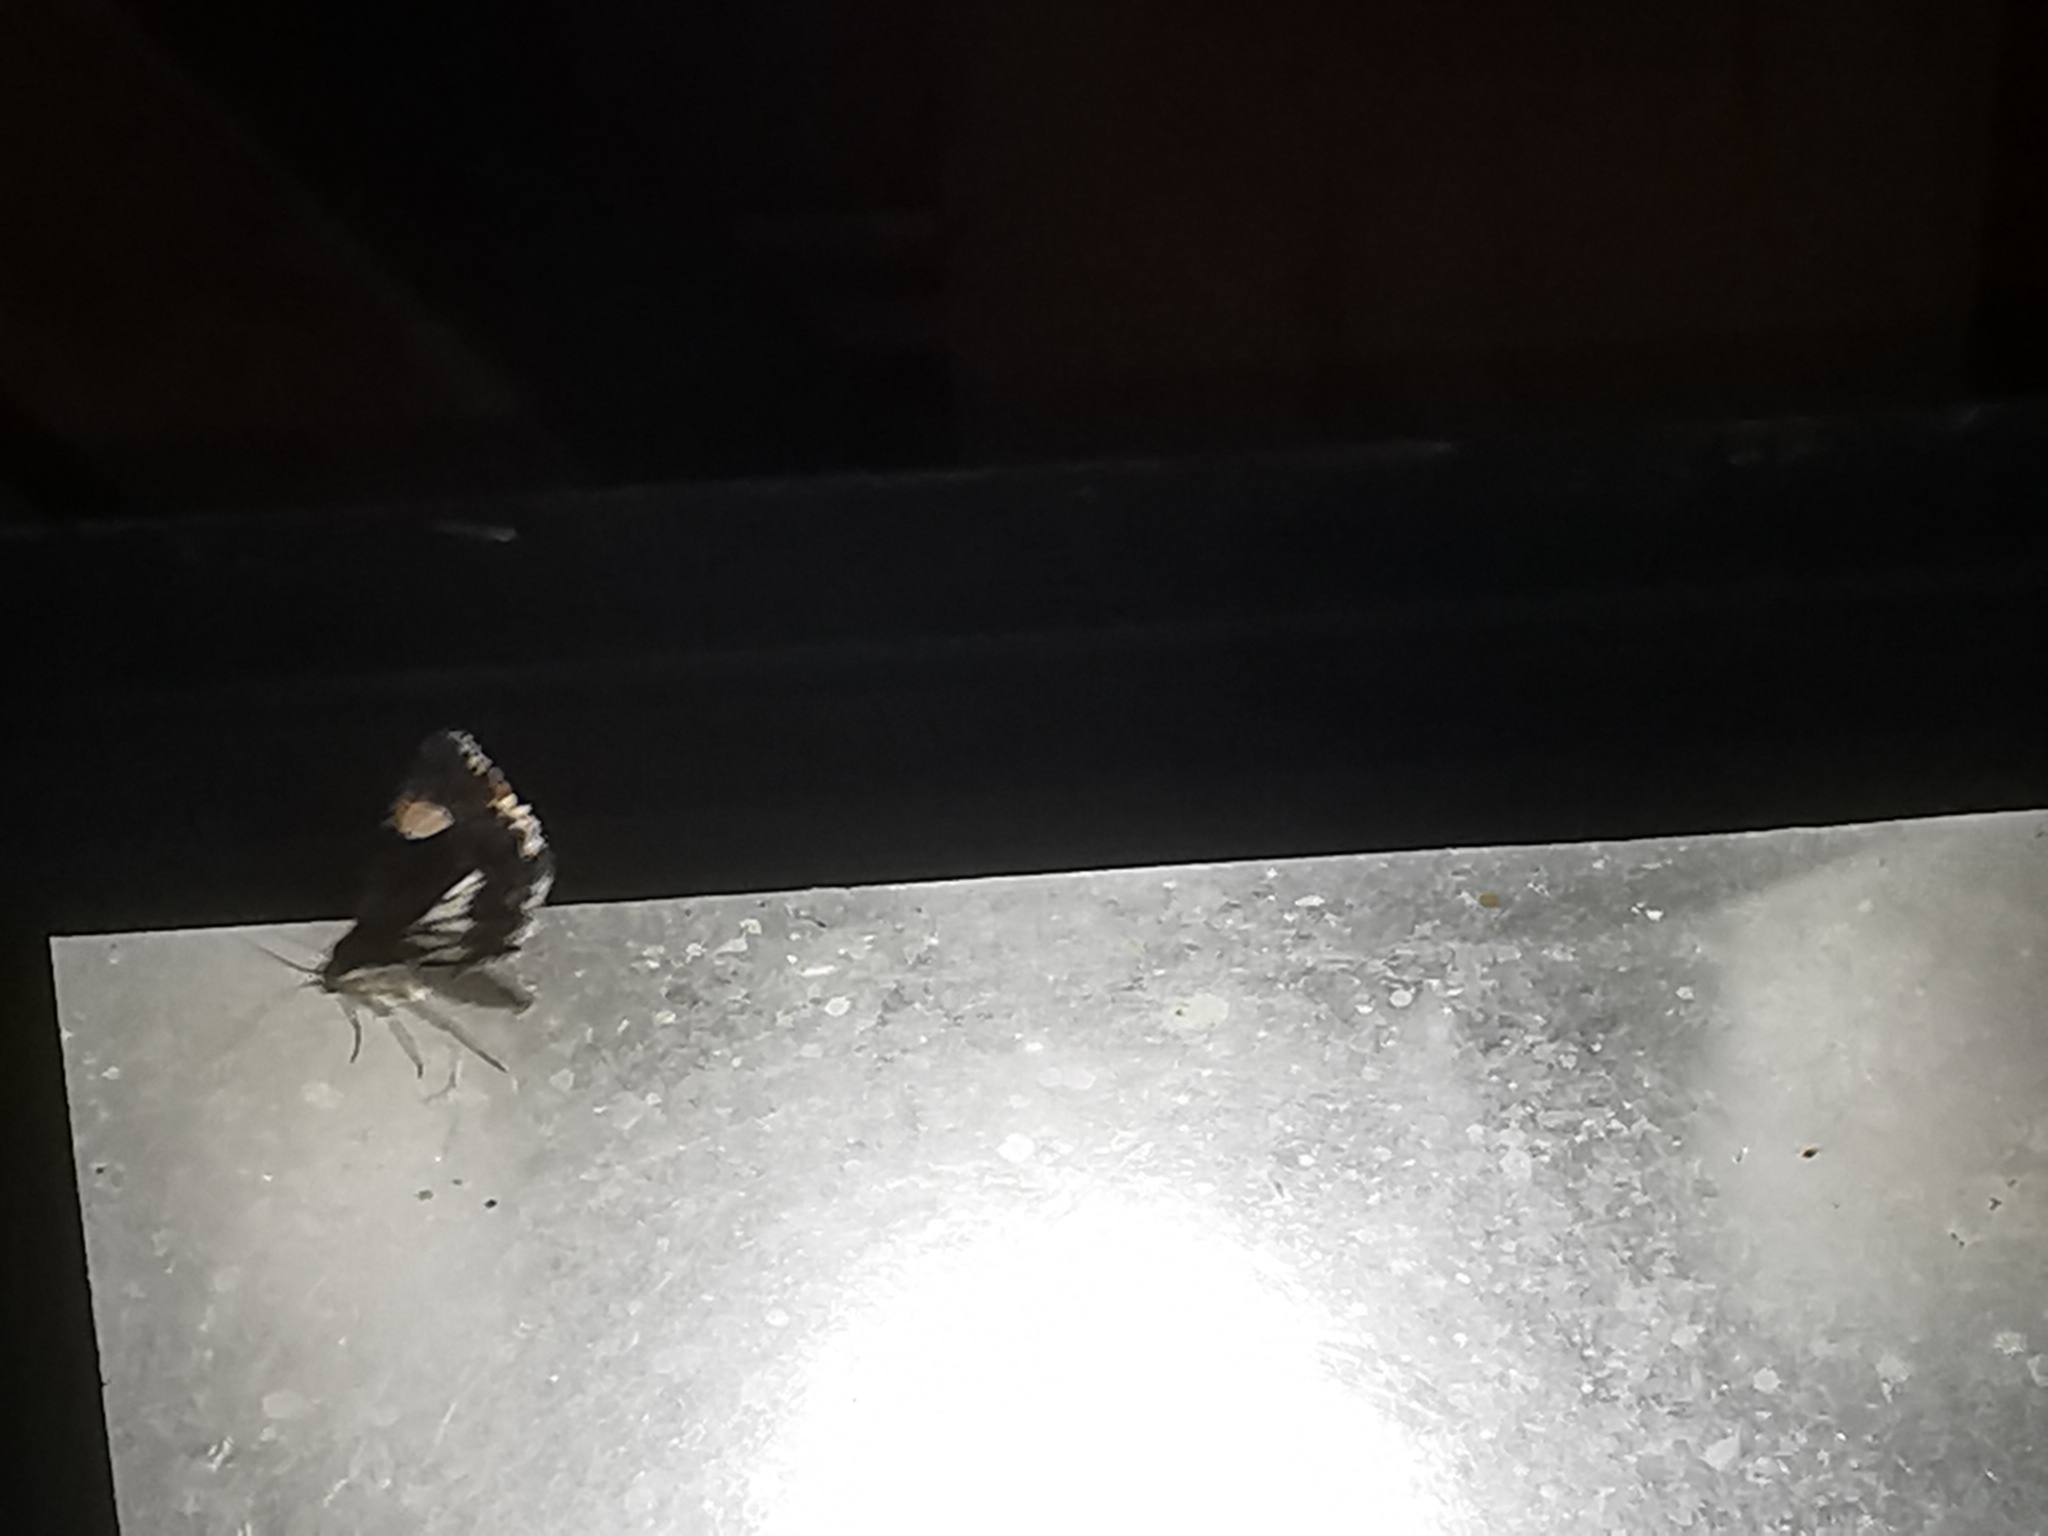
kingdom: Animalia
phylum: Arthropoda
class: Insecta
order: Lepidoptera
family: Erebidae
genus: Tyta
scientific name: Tyta luctuosa
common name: Four-spotted
